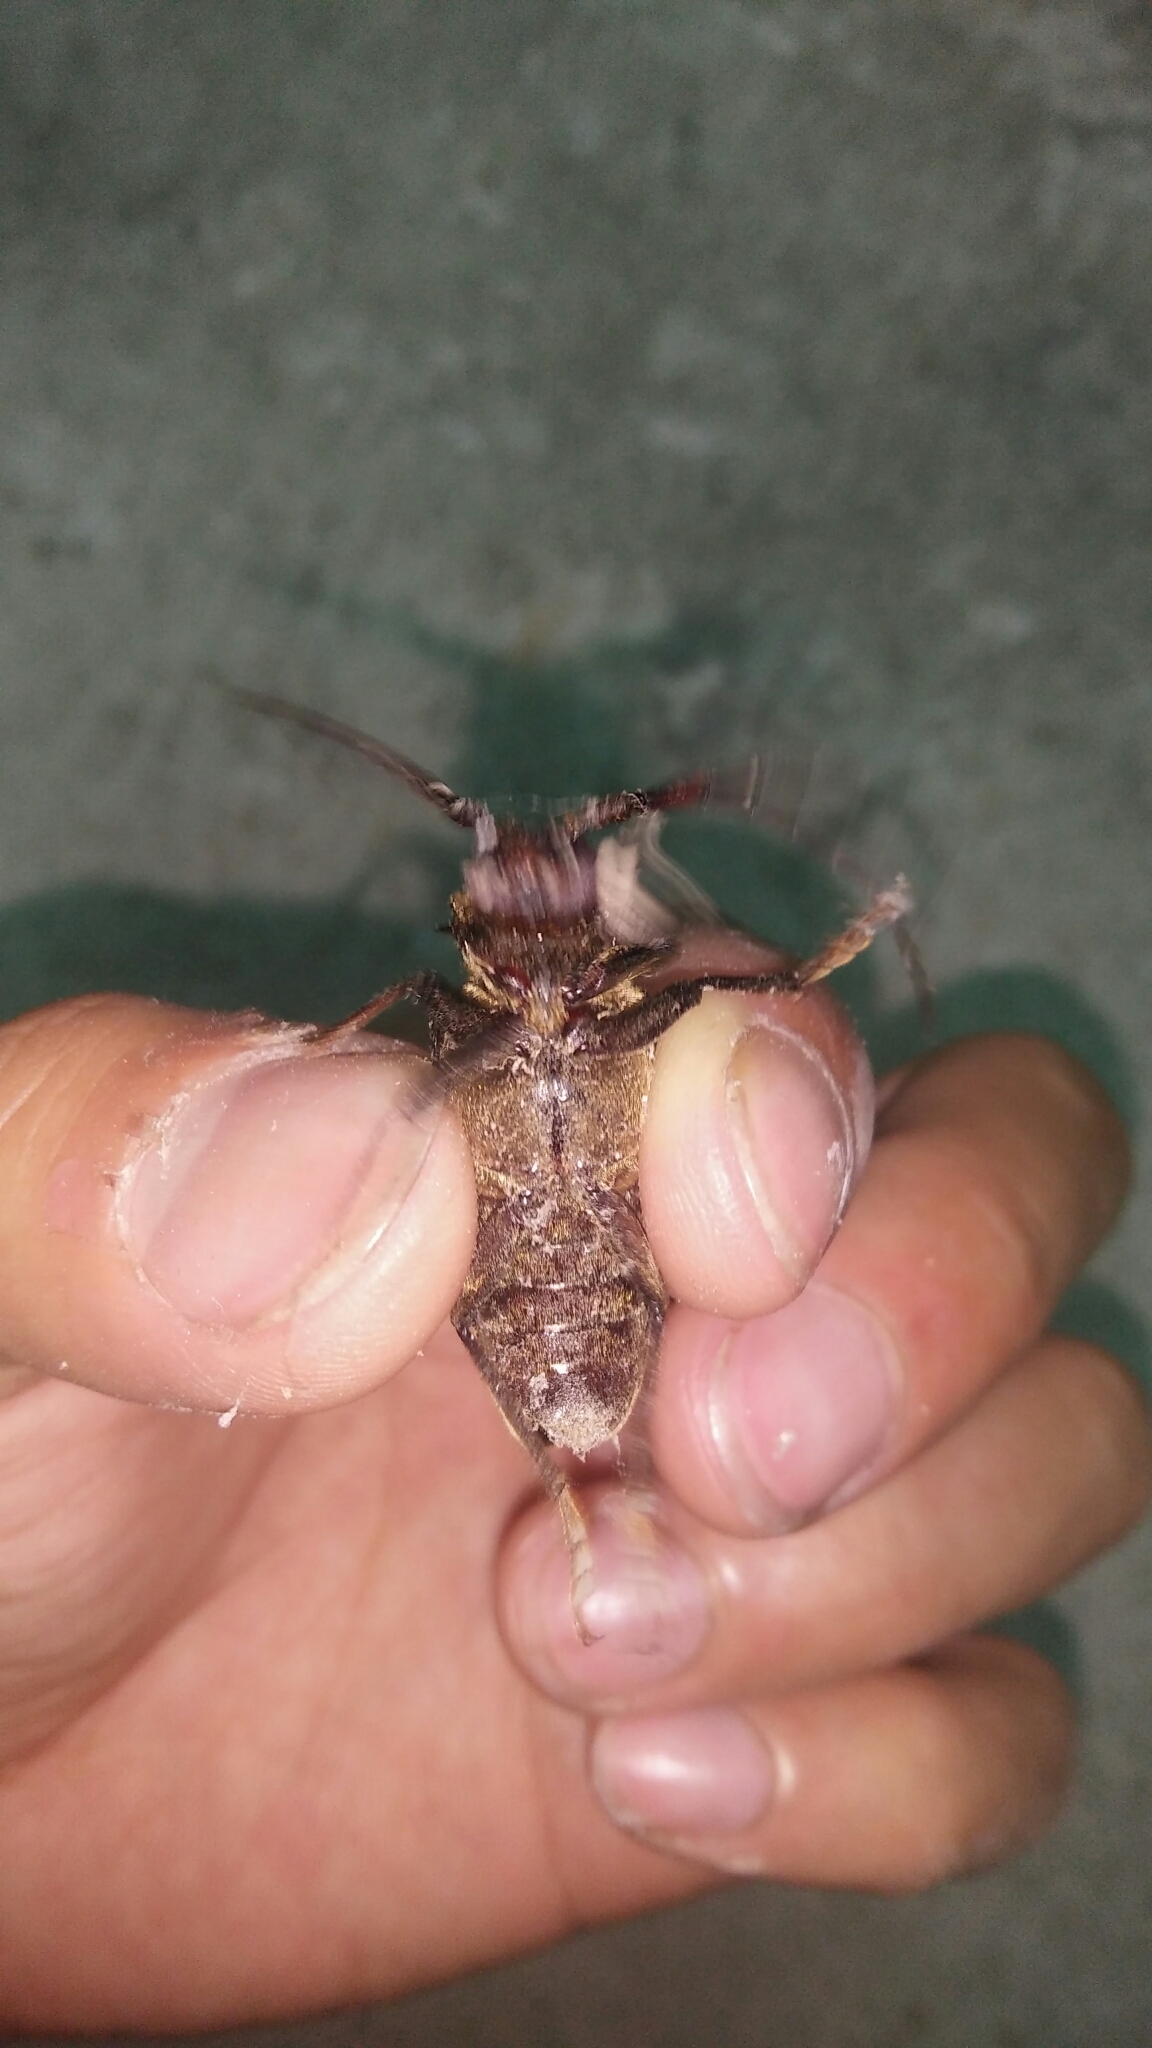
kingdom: Animalia
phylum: Arthropoda
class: Insecta
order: Coleoptera
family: Cerambycidae
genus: Priotyrannus
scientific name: Priotyrannus closteroides
